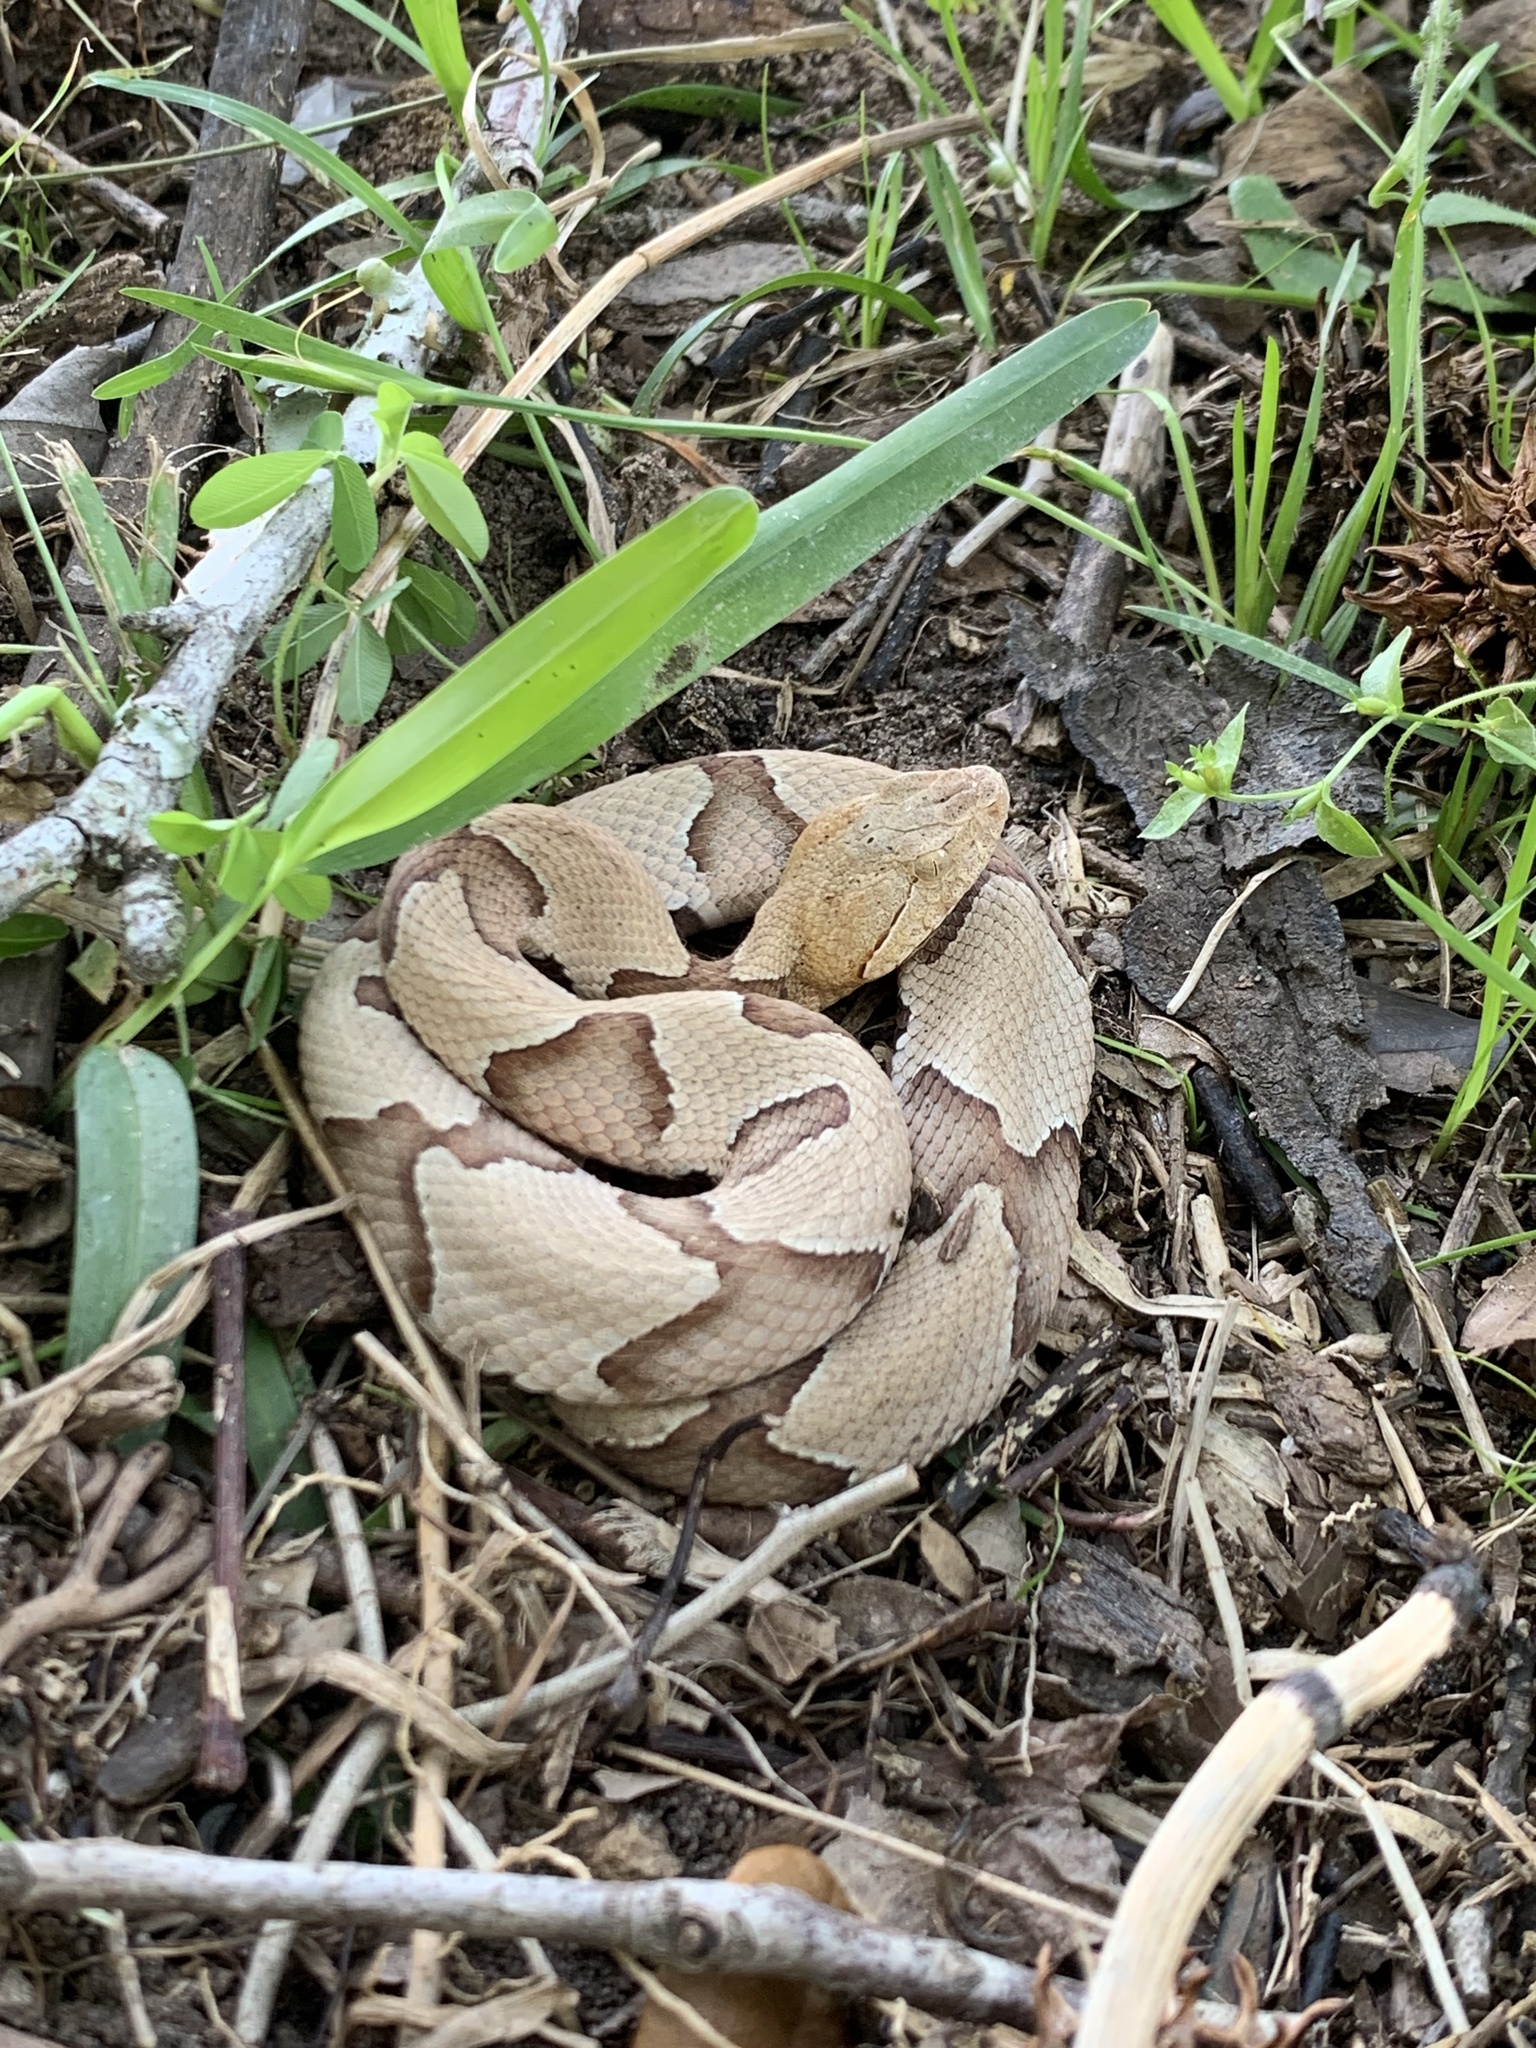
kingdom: Animalia
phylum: Chordata
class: Squamata
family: Viperidae
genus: Agkistrodon
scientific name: Agkistrodon contortrix
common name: Northern copperhead
